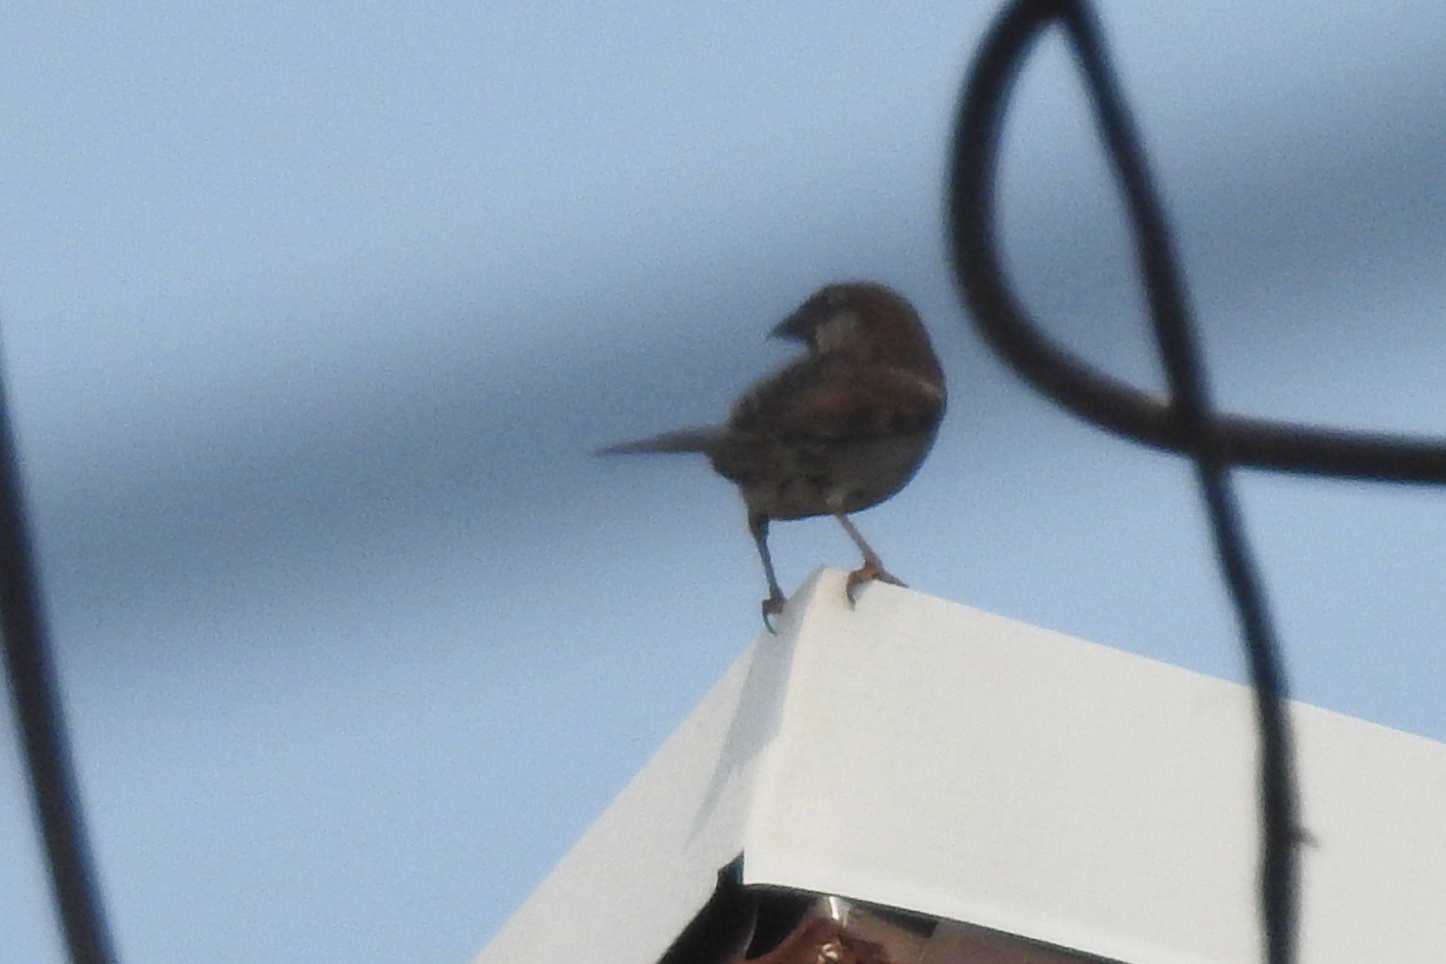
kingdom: Animalia
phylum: Chordata
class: Aves
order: Passeriformes
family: Passeridae
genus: Passer
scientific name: Passer domesticus
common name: House sparrow
